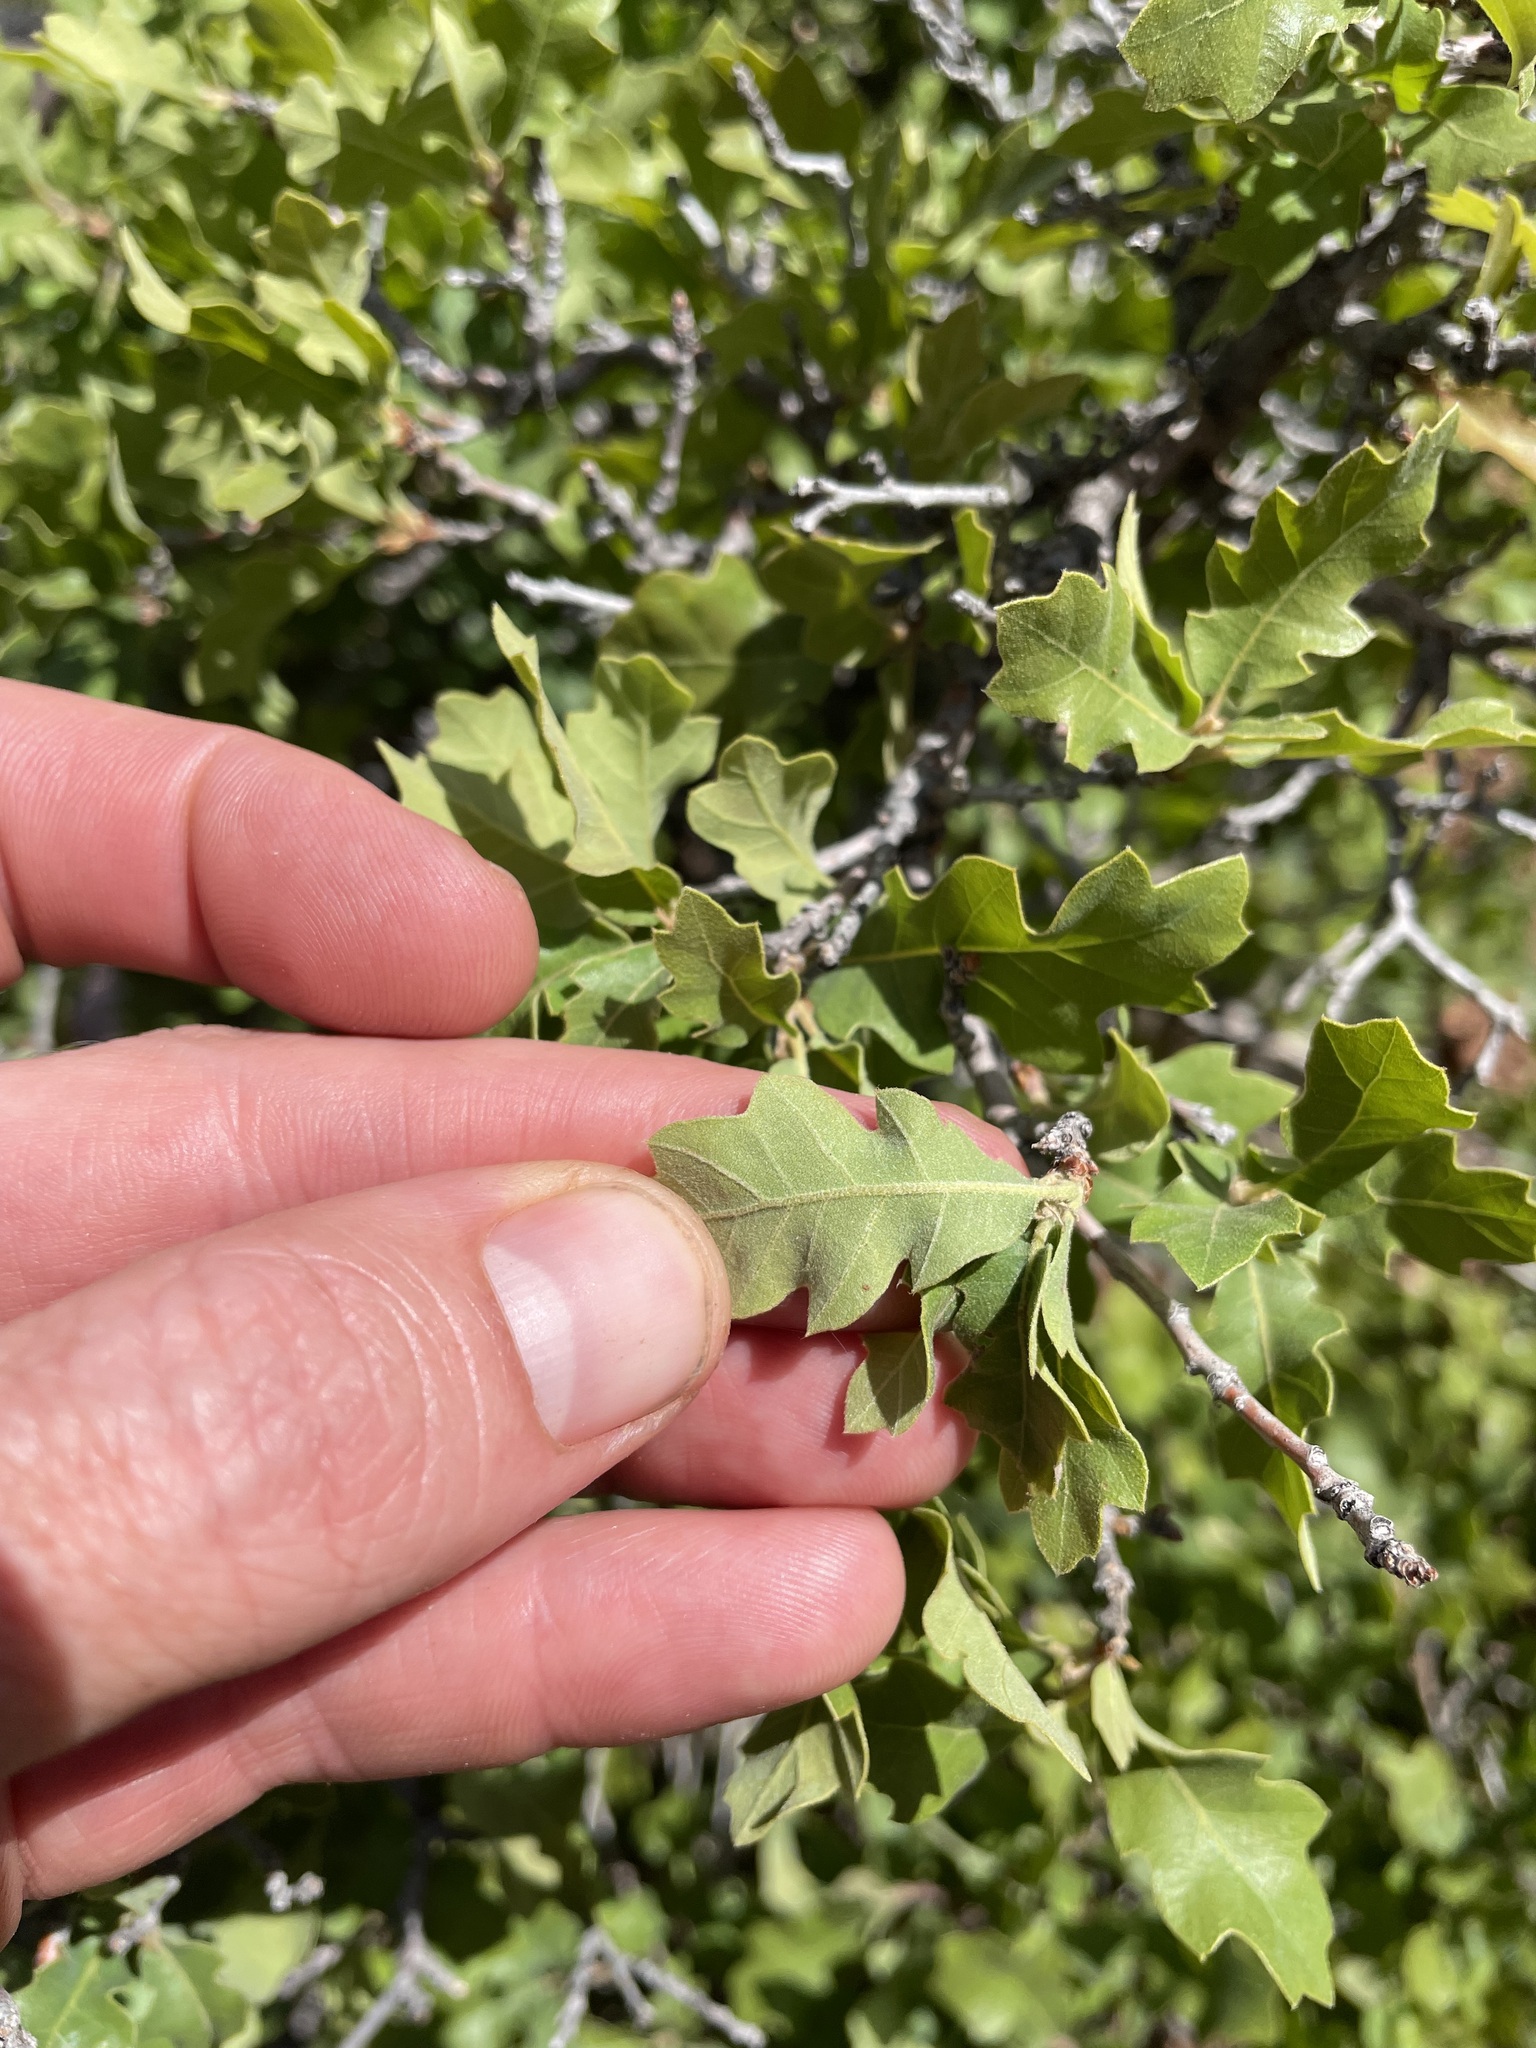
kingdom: Plantae
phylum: Tracheophyta
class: Magnoliopsida
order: Fagales
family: Fagaceae
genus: Quercus
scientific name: Quercus undulata
